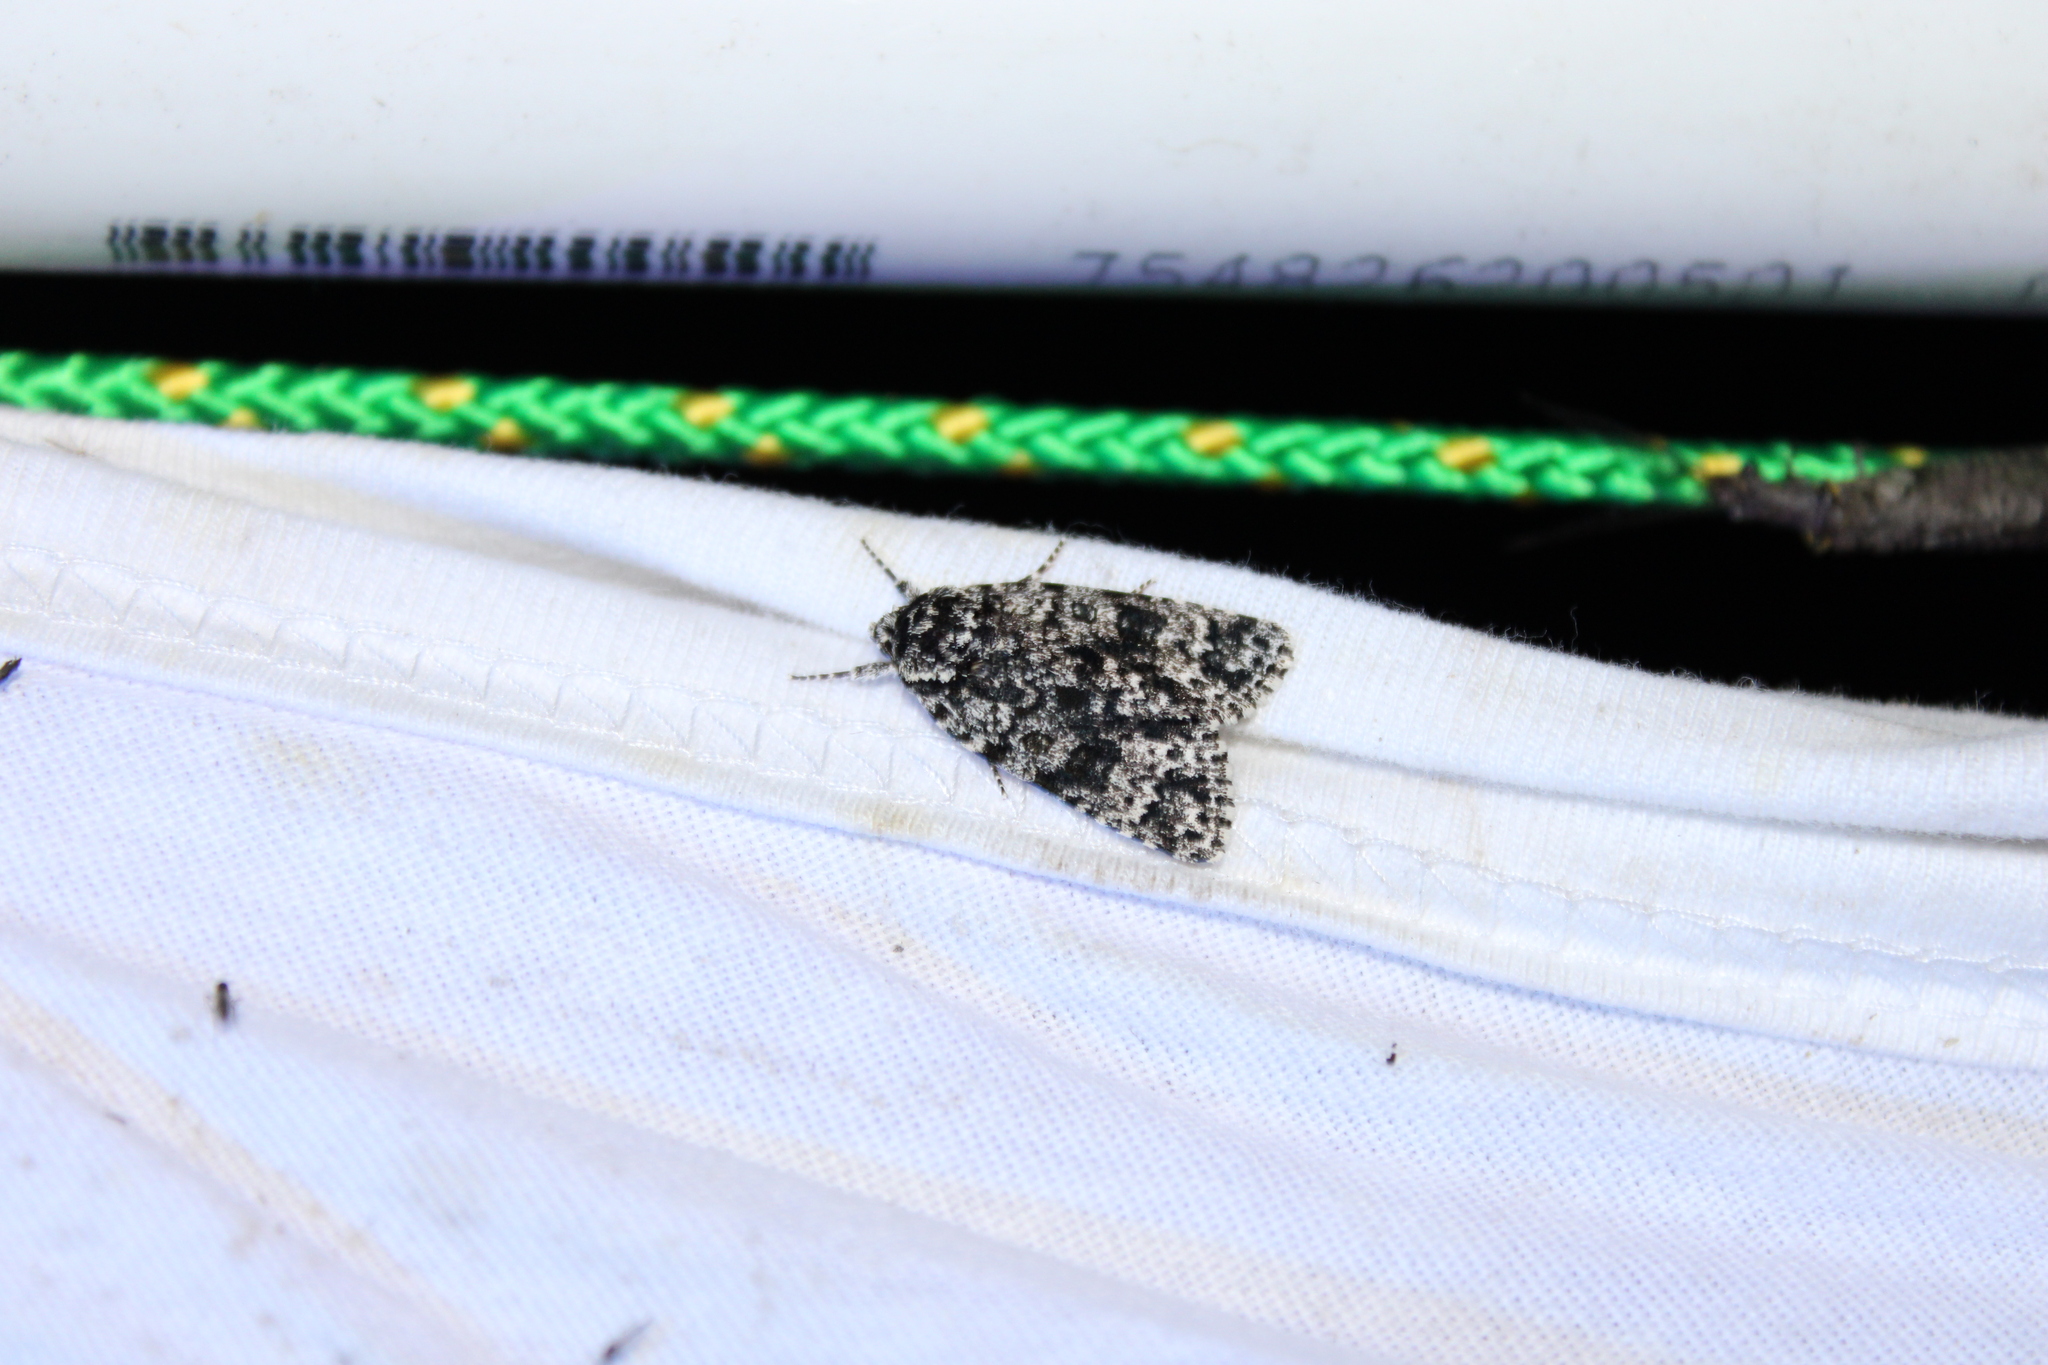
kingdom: Animalia
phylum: Arthropoda
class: Insecta
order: Lepidoptera
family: Noctuidae
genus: Acronicta
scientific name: Acronicta noctivaga
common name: Night-wandering dagger
